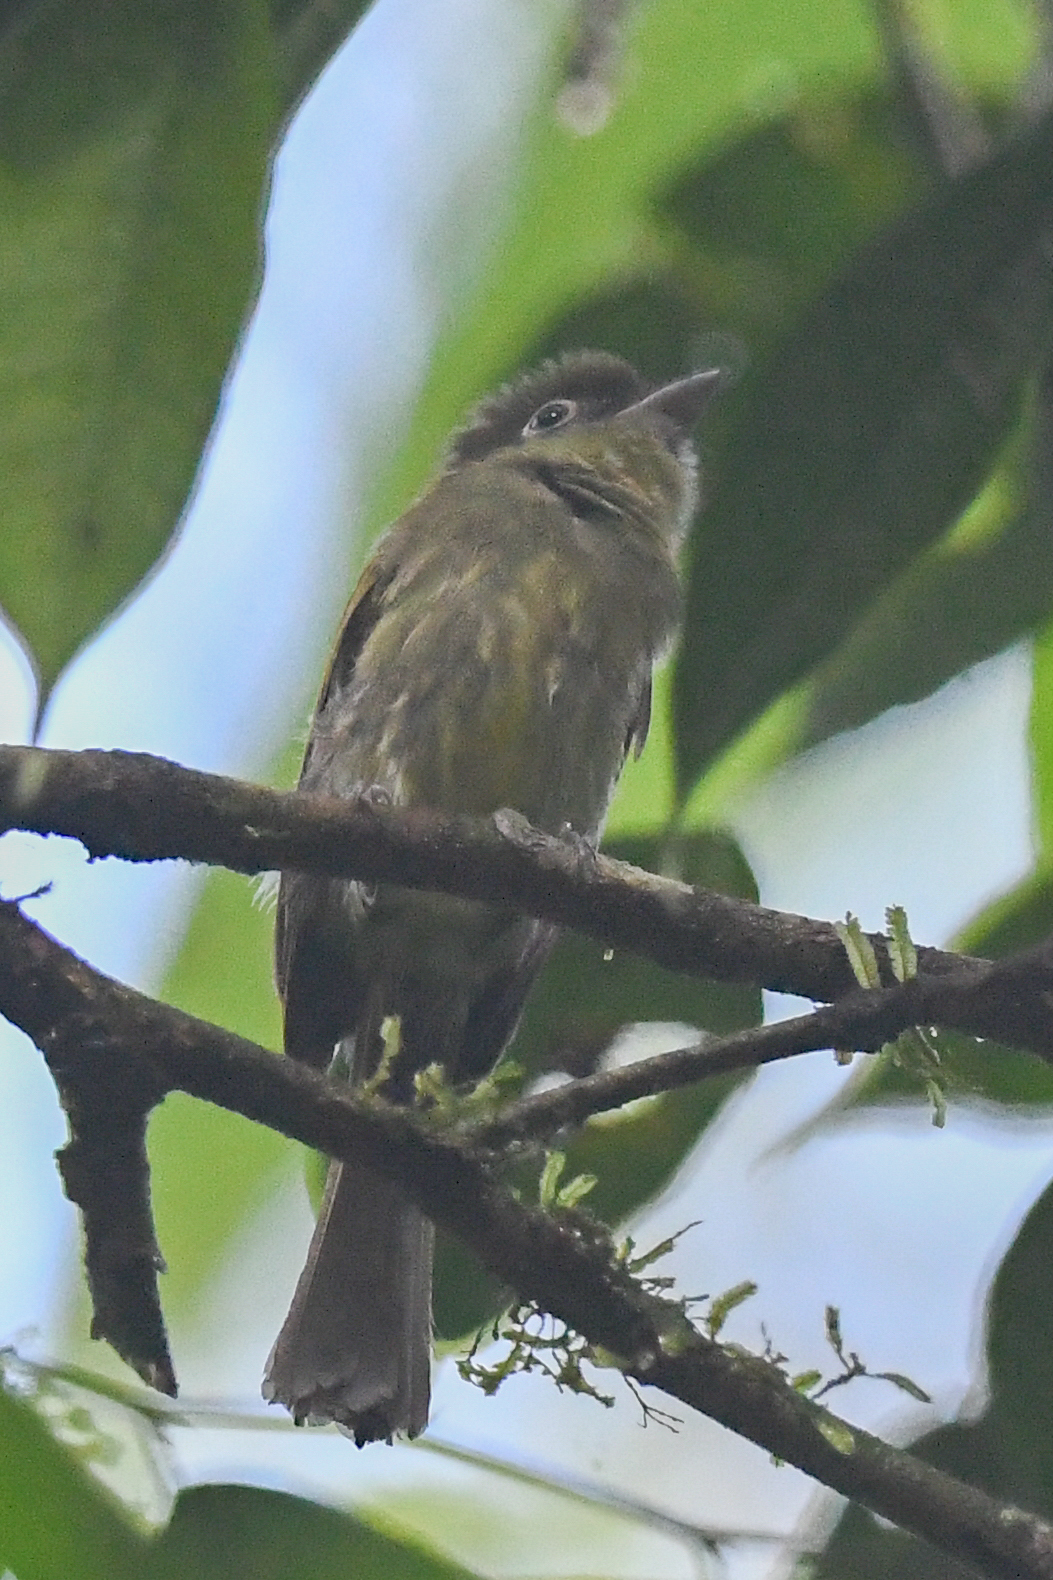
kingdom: Animalia
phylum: Chordata
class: Aves
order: Passeriformes
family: Tyrannidae
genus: Rhynchocyclus
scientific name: Rhynchocyclus brevirostris
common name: Eye-ringed flatbill
